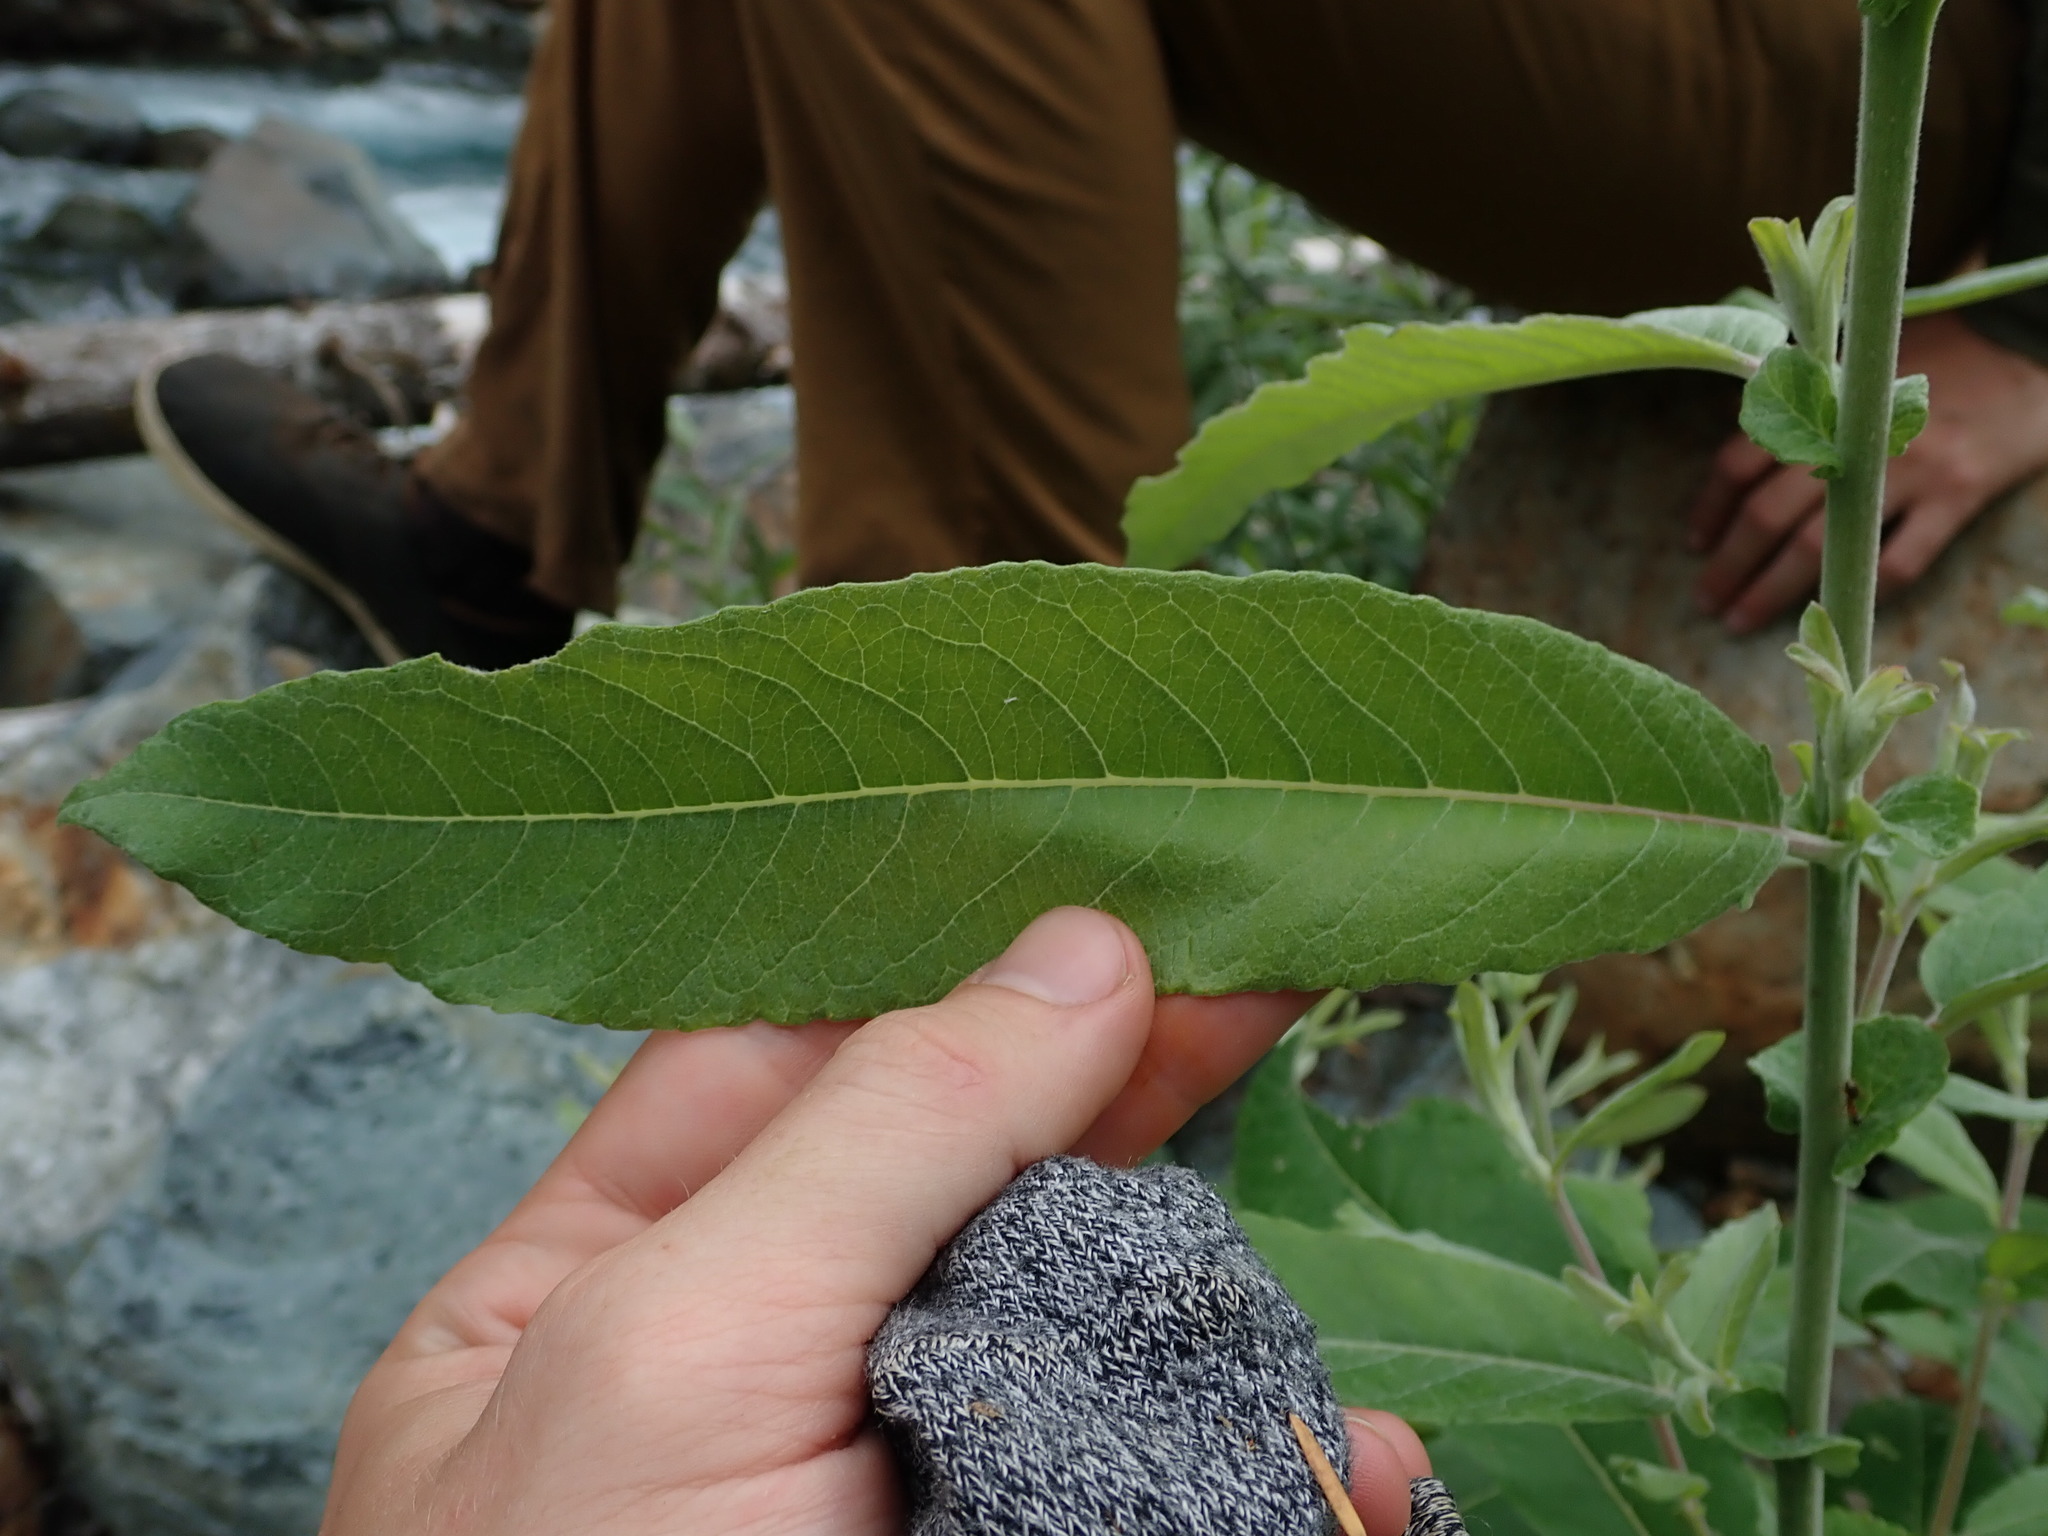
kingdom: Plantae
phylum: Tracheophyta
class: Magnoliopsida
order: Malpighiales
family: Salicaceae
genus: Salix
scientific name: Salix sitchensis
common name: Sitka willow
